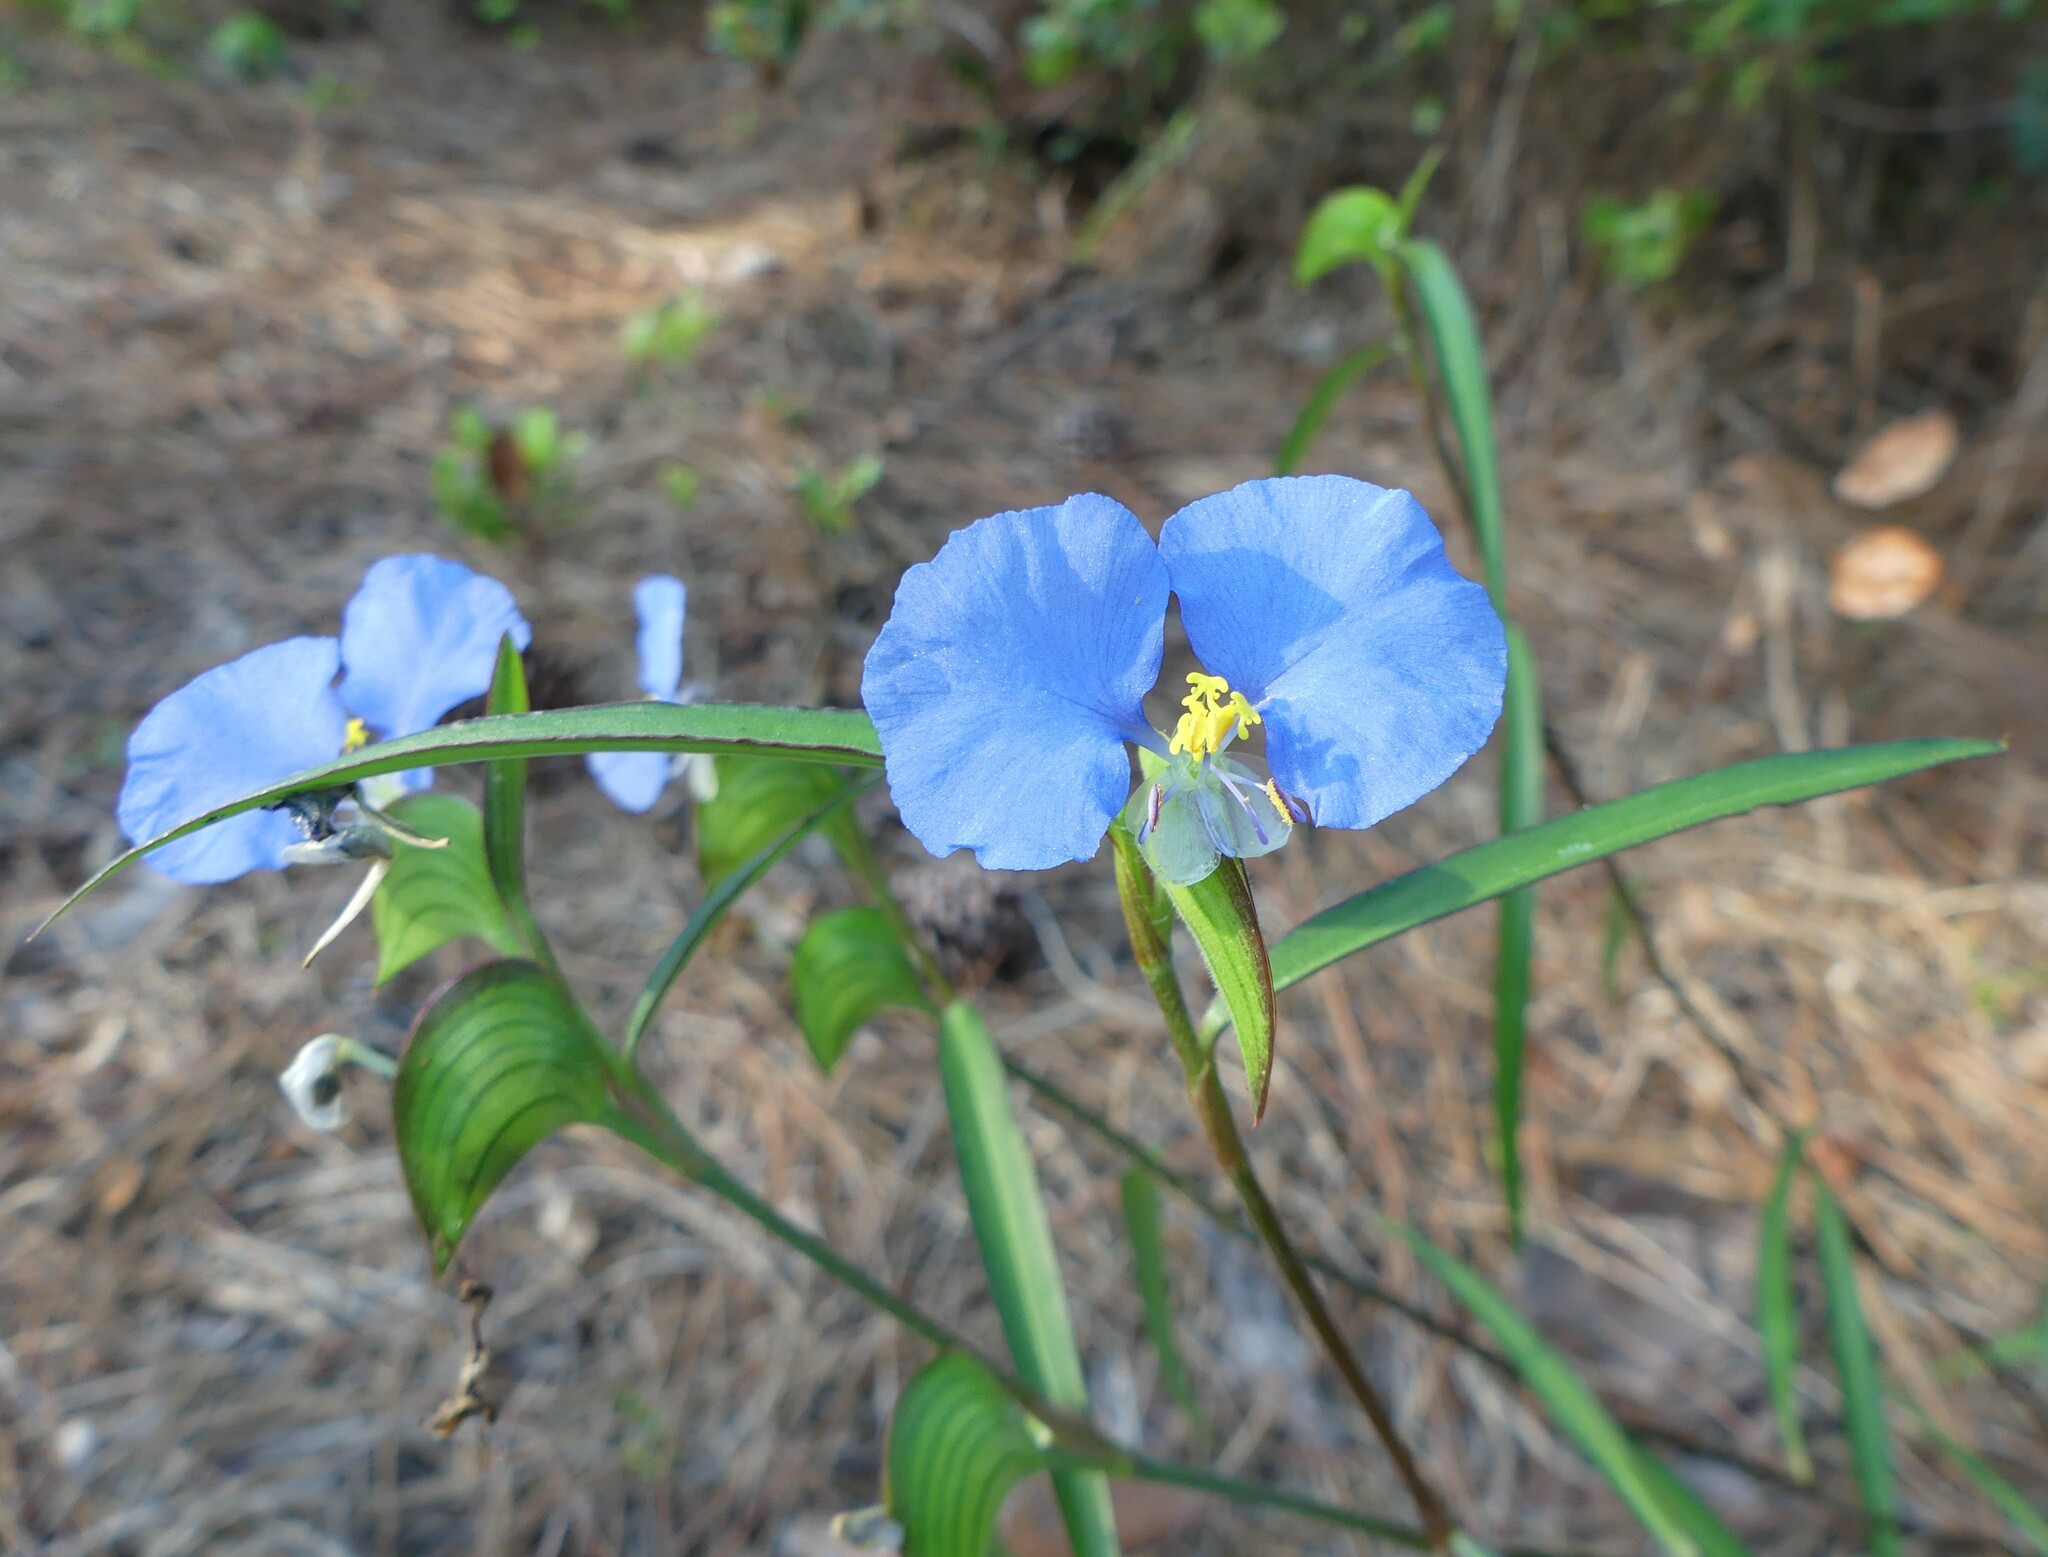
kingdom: Plantae
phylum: Tracheophyta
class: Liliopsida
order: Commelinales
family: Commelinaceae
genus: Commelina
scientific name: Commelina erecta
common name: Blousel blommetjie
